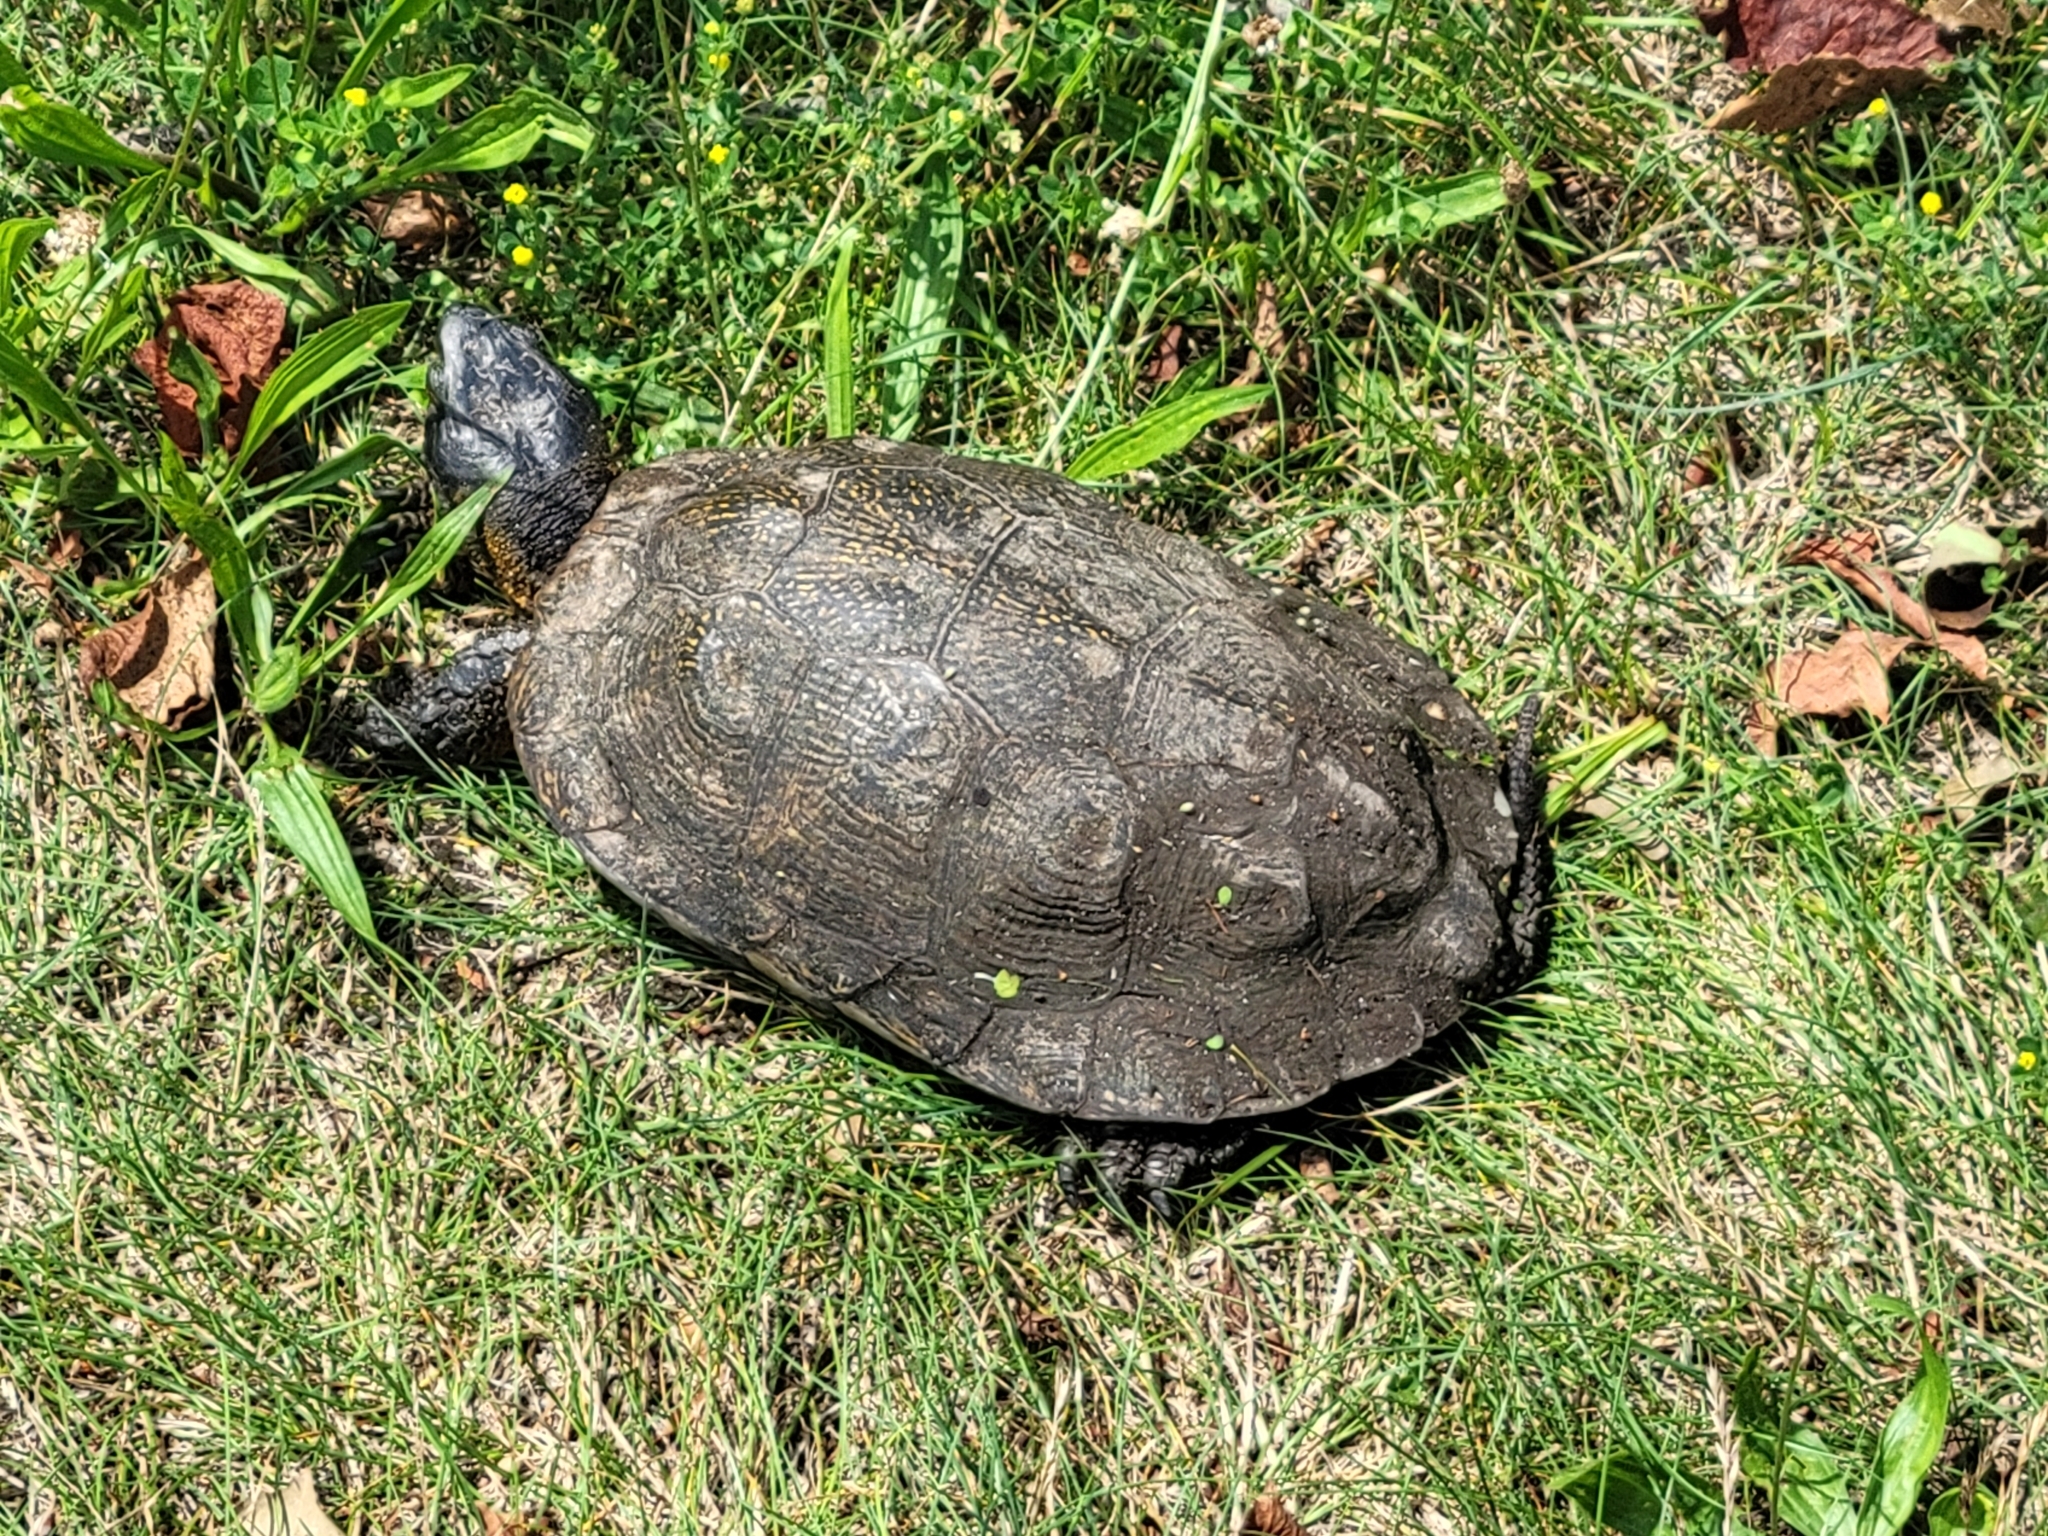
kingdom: Animalia
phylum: Chordata
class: Testudines
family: Emydidae
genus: Glyptemys
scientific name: Glyptemys insculpta
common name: Wood turtle
